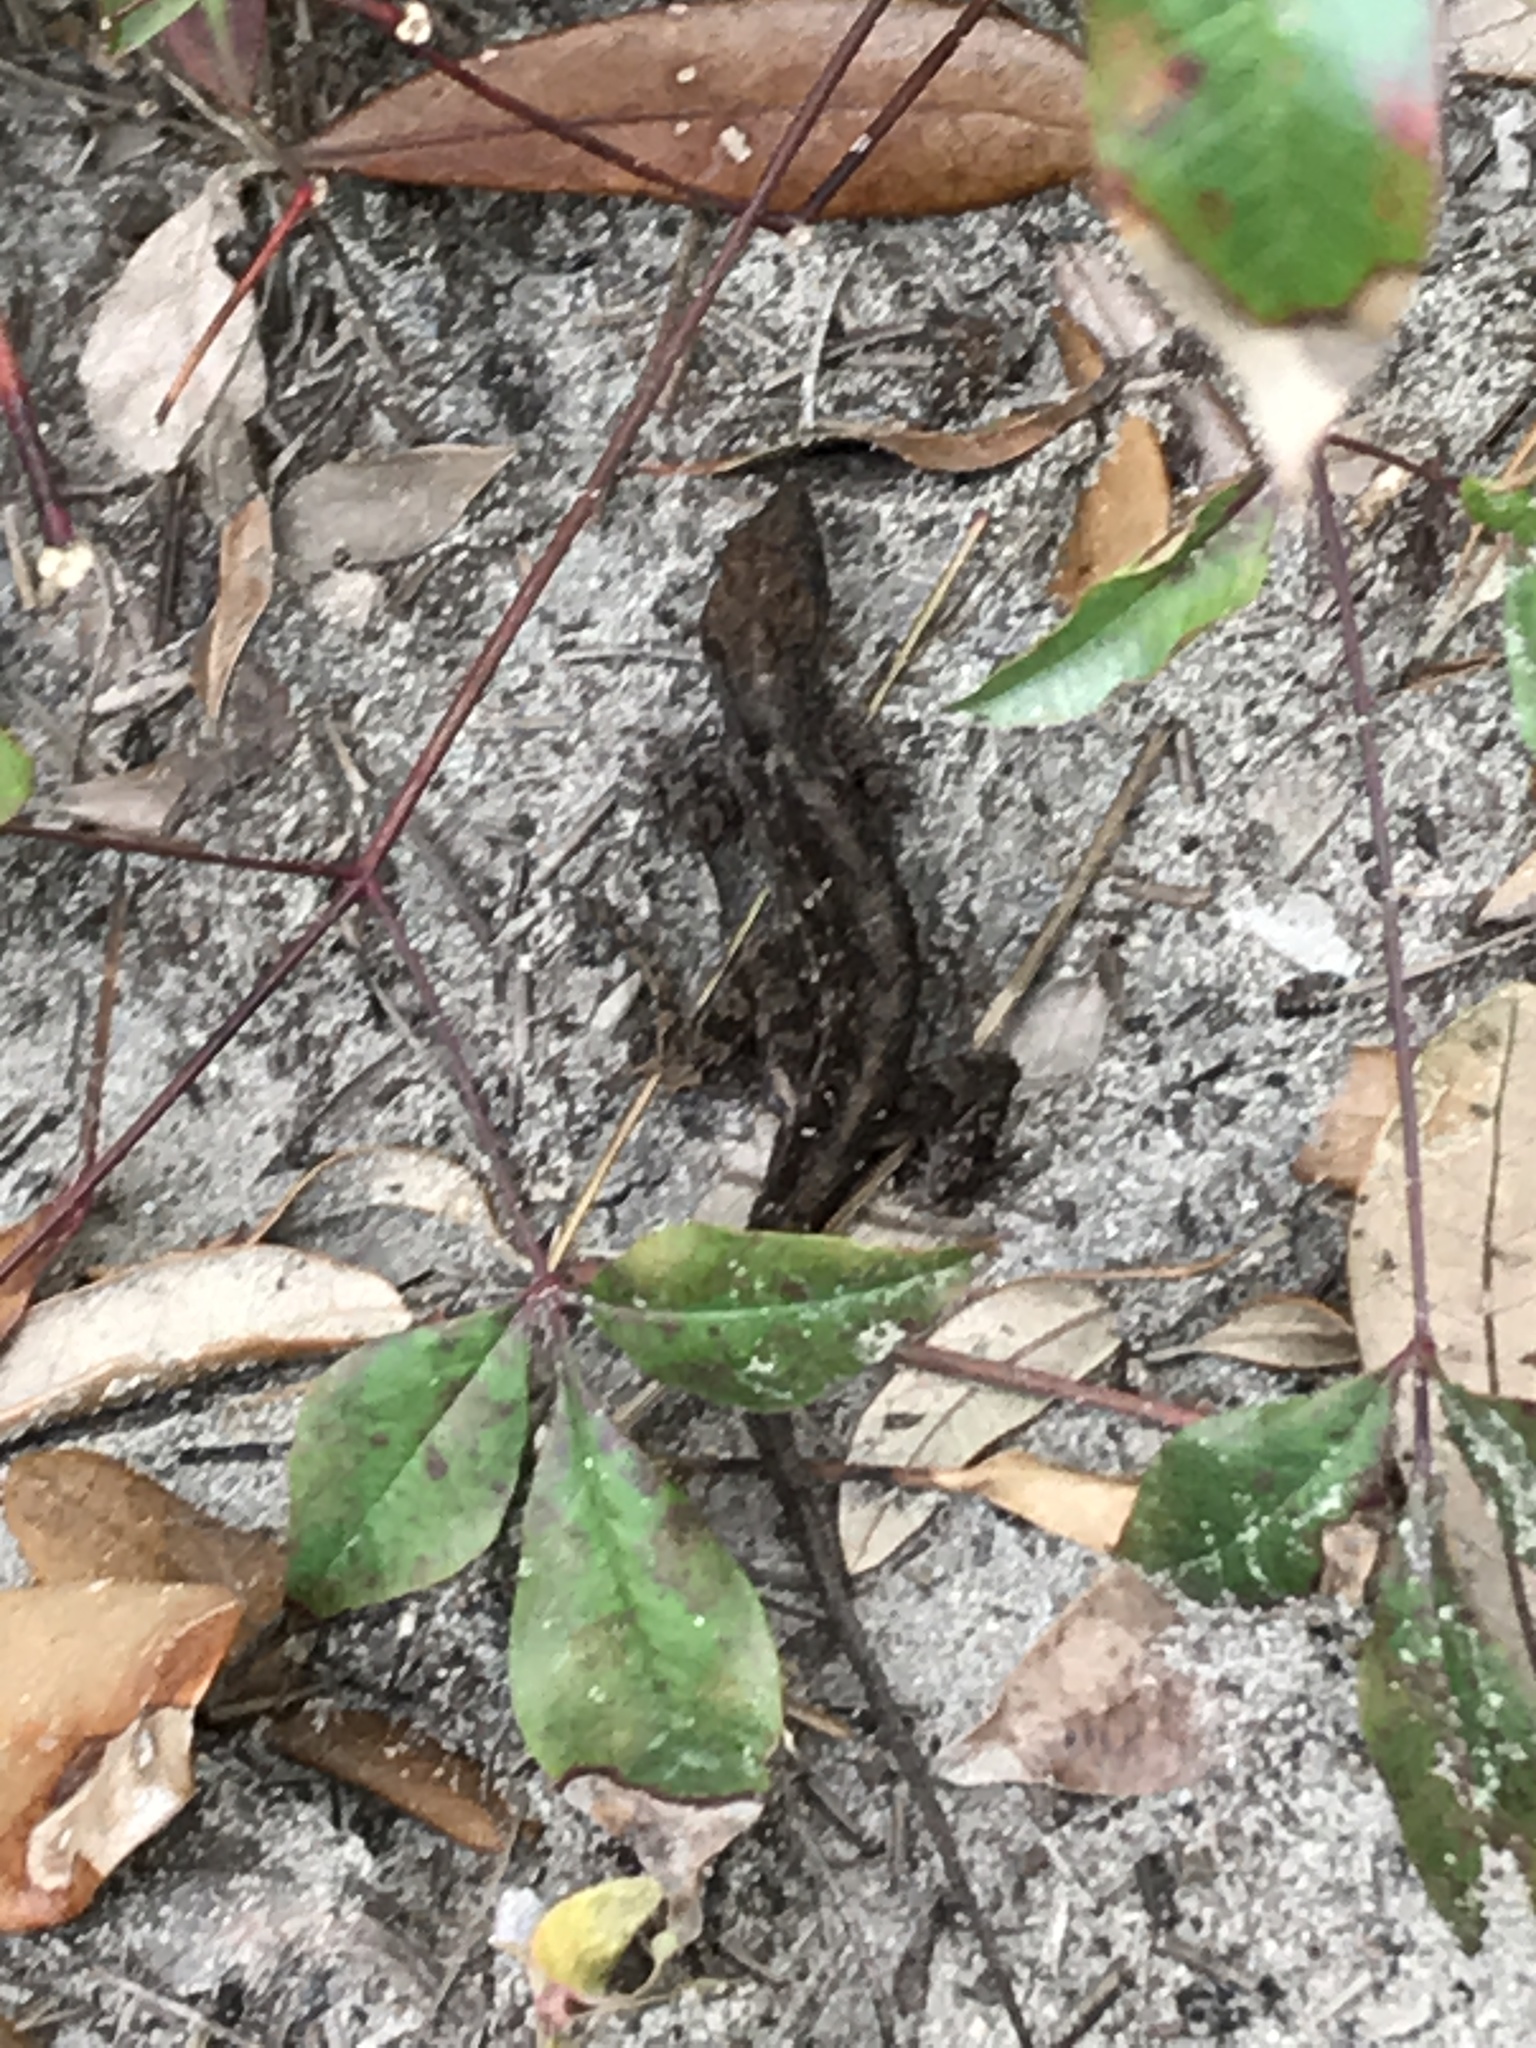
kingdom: Animalia
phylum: Chordata
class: Squamata
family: Dactyloidae
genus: Anolis
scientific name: Anolis sagrei
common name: Brown anole
